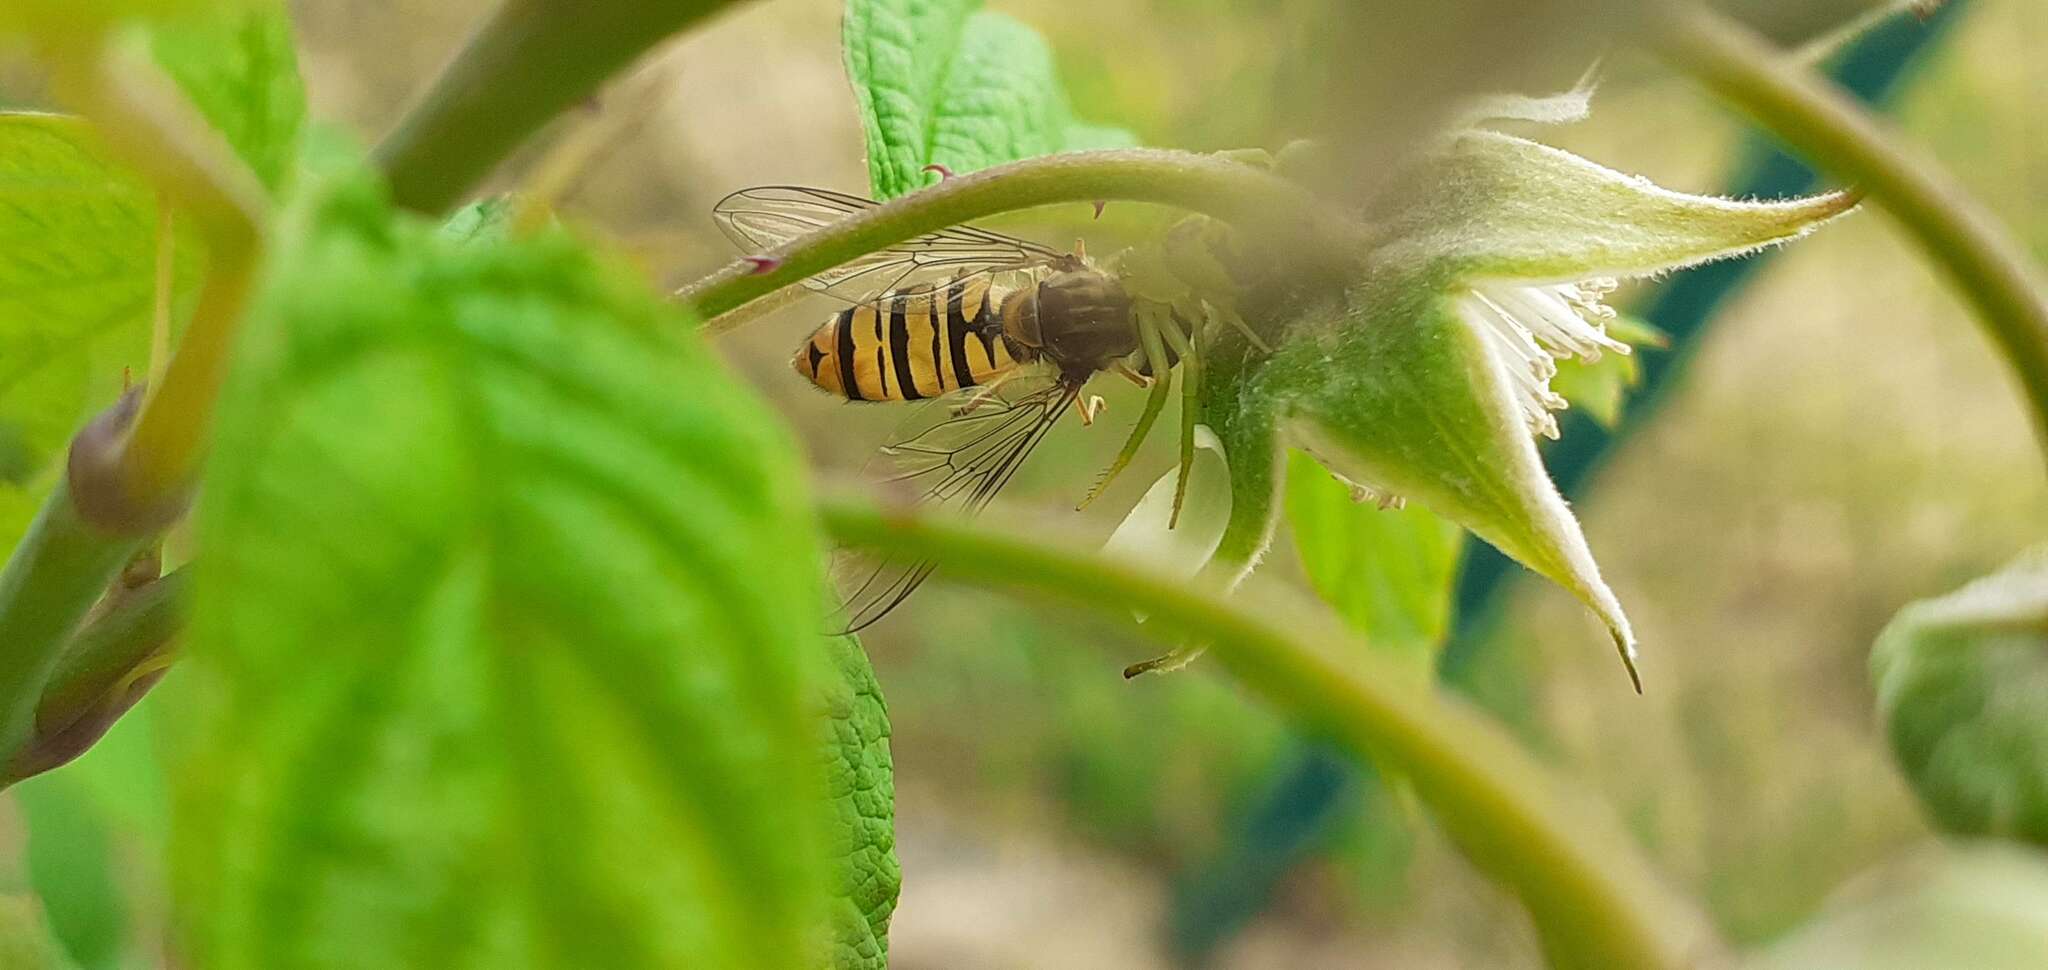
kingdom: Animalia
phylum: Arthropoda
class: Insecta
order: Diptera
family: Syrphidae
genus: Episyrphus
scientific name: Episyrphus balteatus
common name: Marmalade hoverfly
